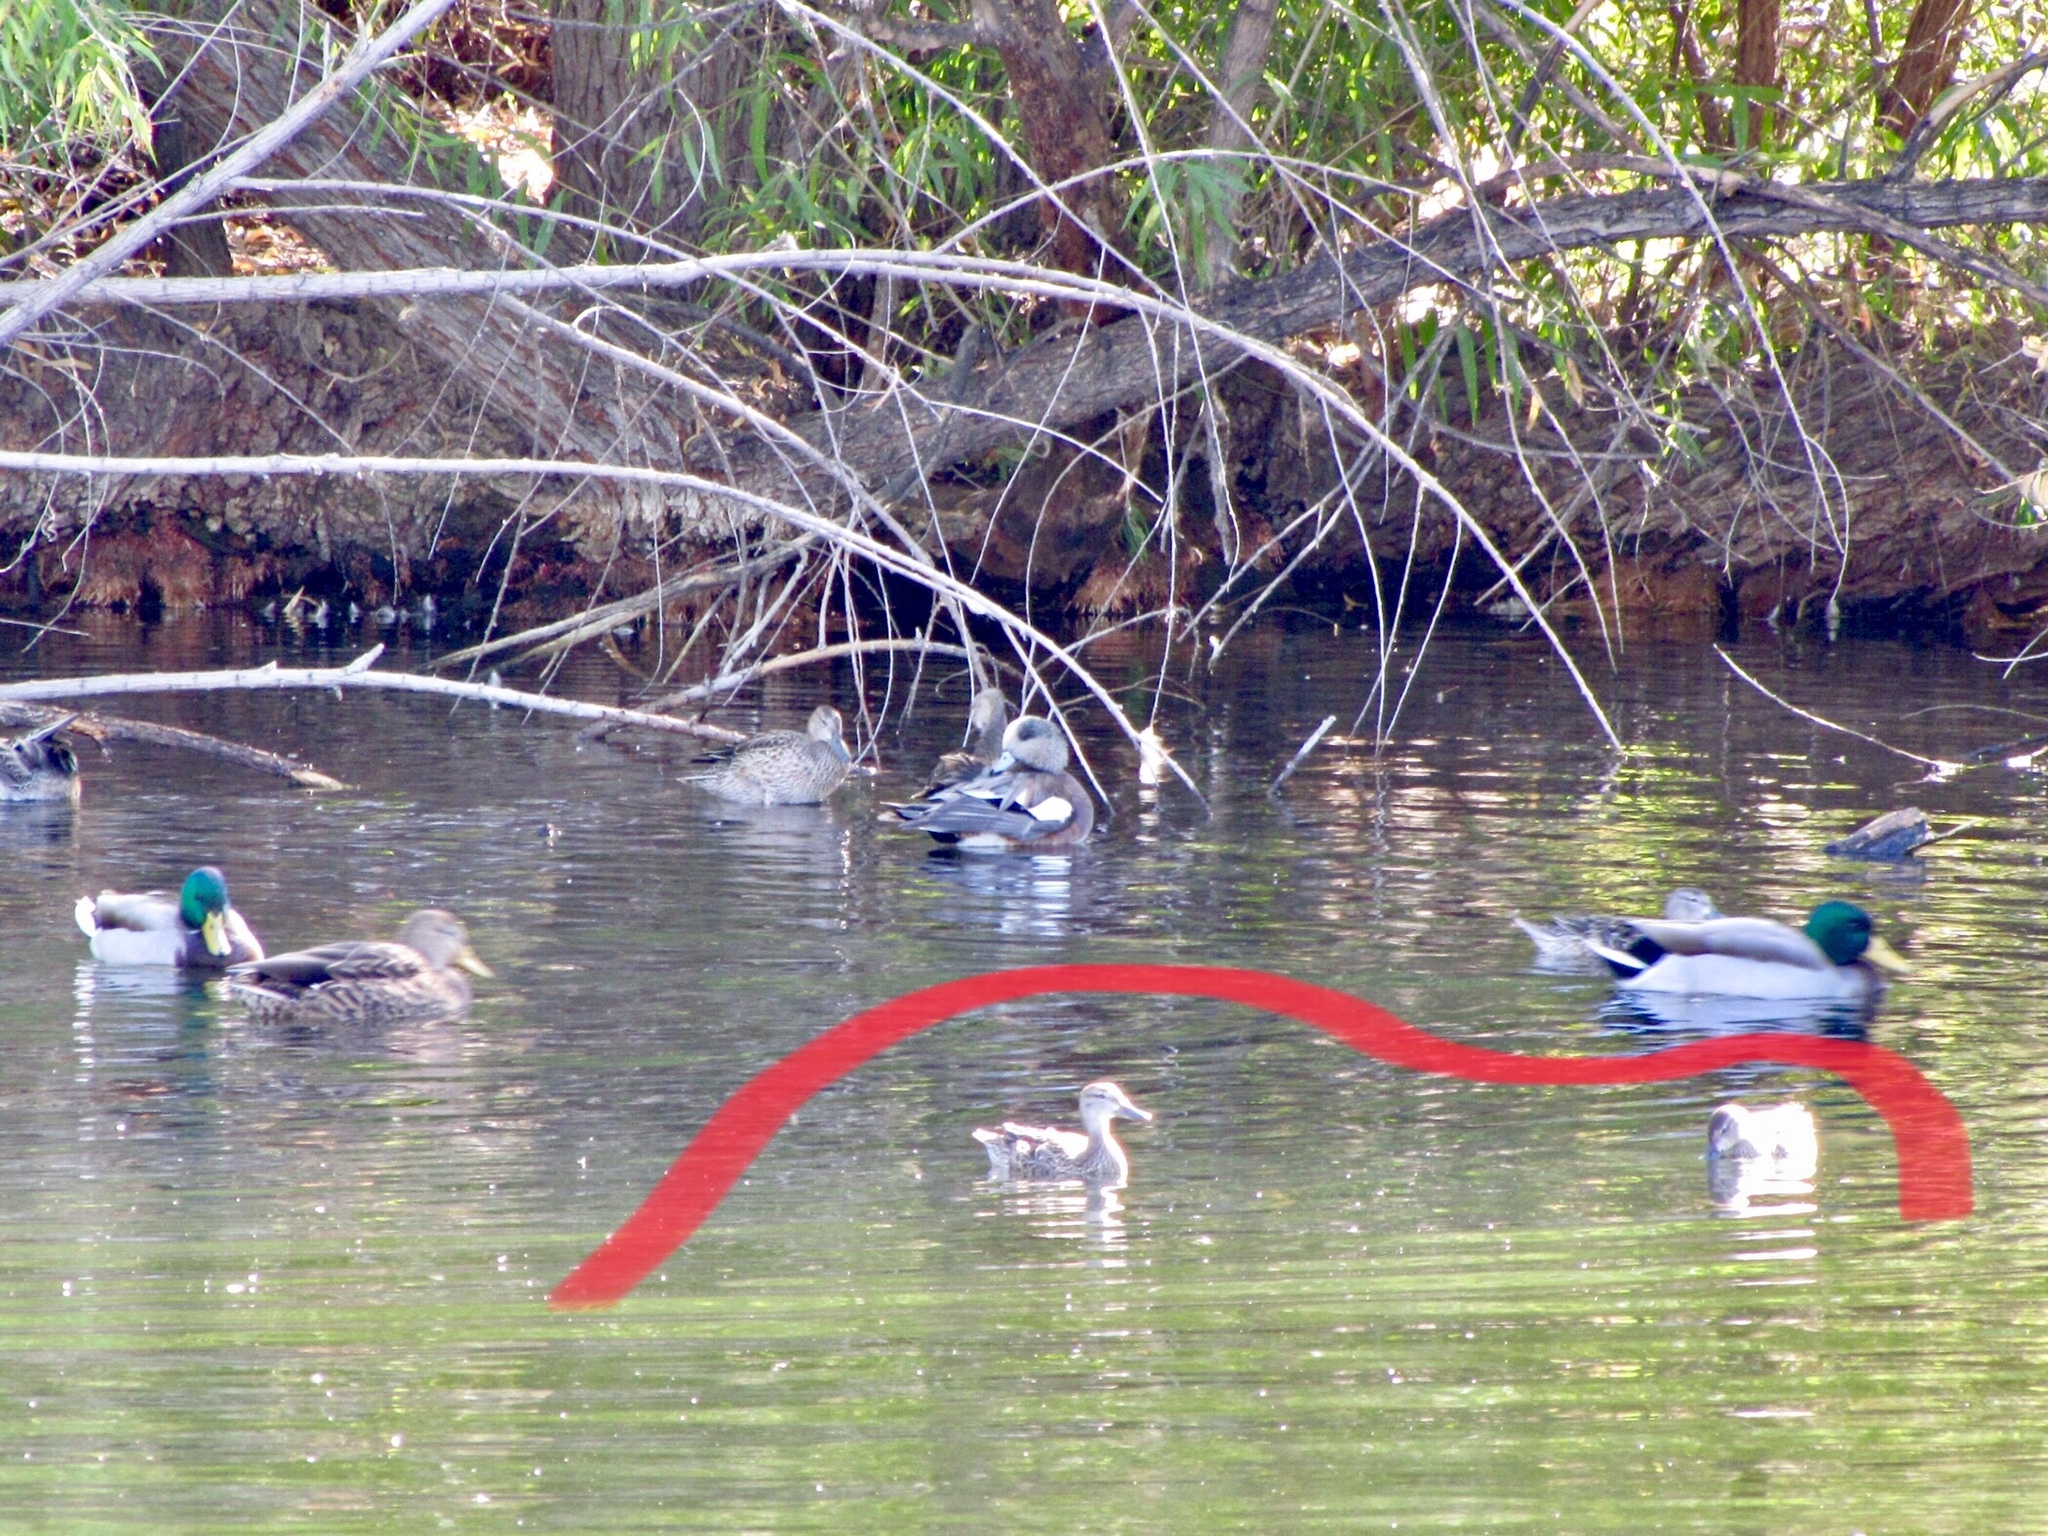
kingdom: Animalia
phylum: Chordata
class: Aves
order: Anseriformes
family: Anatidae
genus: Spatula
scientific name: Spatula discors
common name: Blue-winged teal
